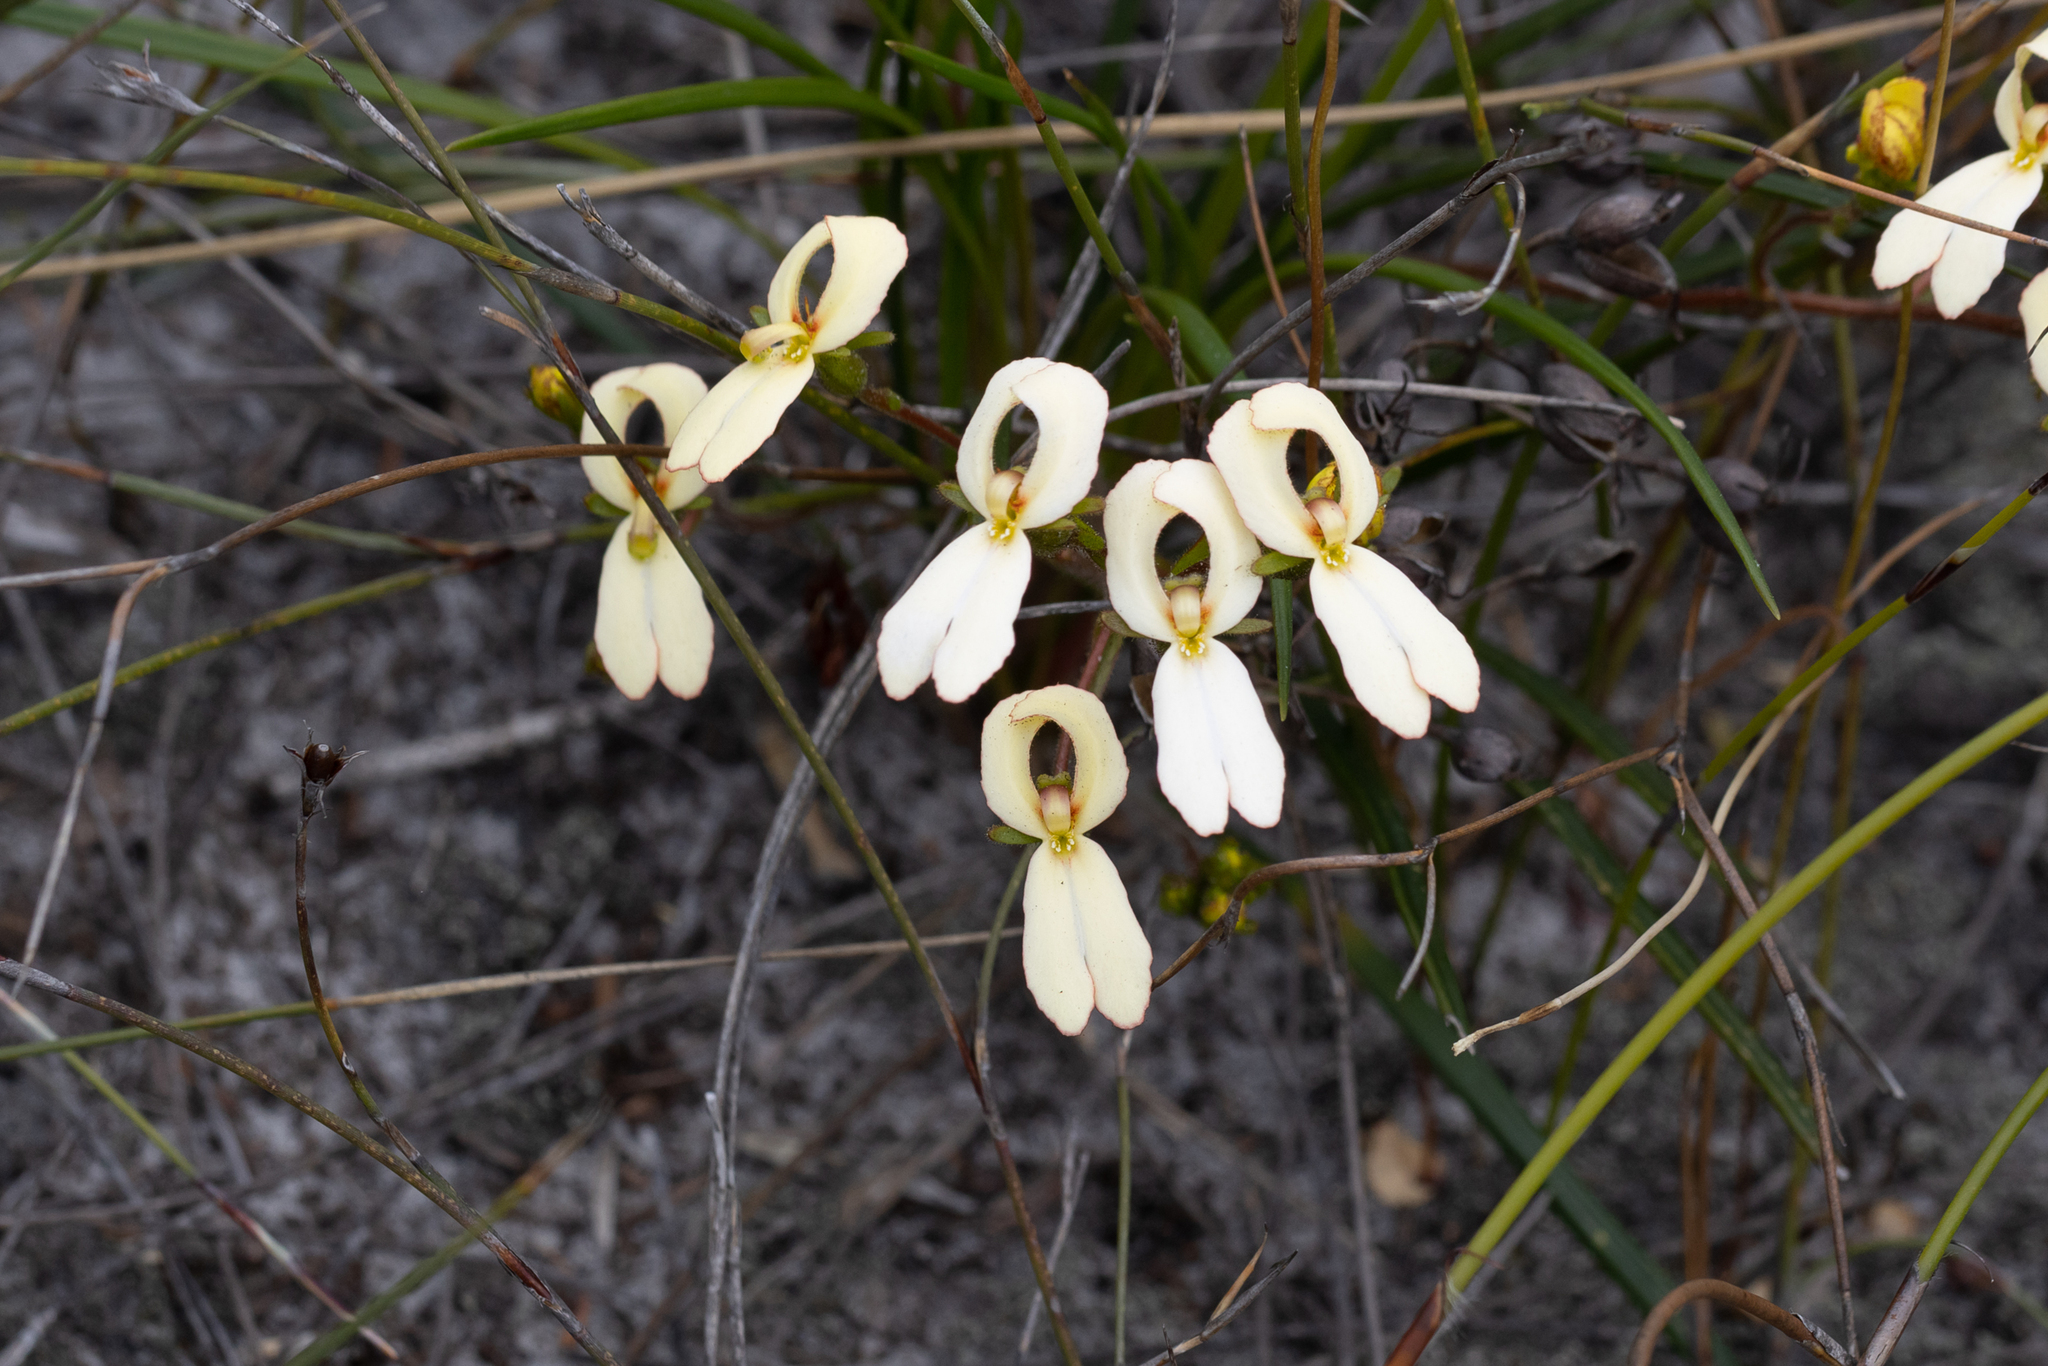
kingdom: Plantae
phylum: Tracheophyta
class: Magnoliopsida
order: Asterales
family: Stylidiaceae
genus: Stylidium
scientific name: Stylidium schoenoides
